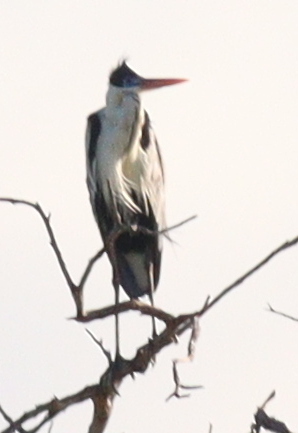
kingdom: Animalia
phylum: Chordata
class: Aves
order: Pelecaniformes
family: Ardeidae
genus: Ardea
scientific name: Ardea cocoi
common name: Cocoi heron
